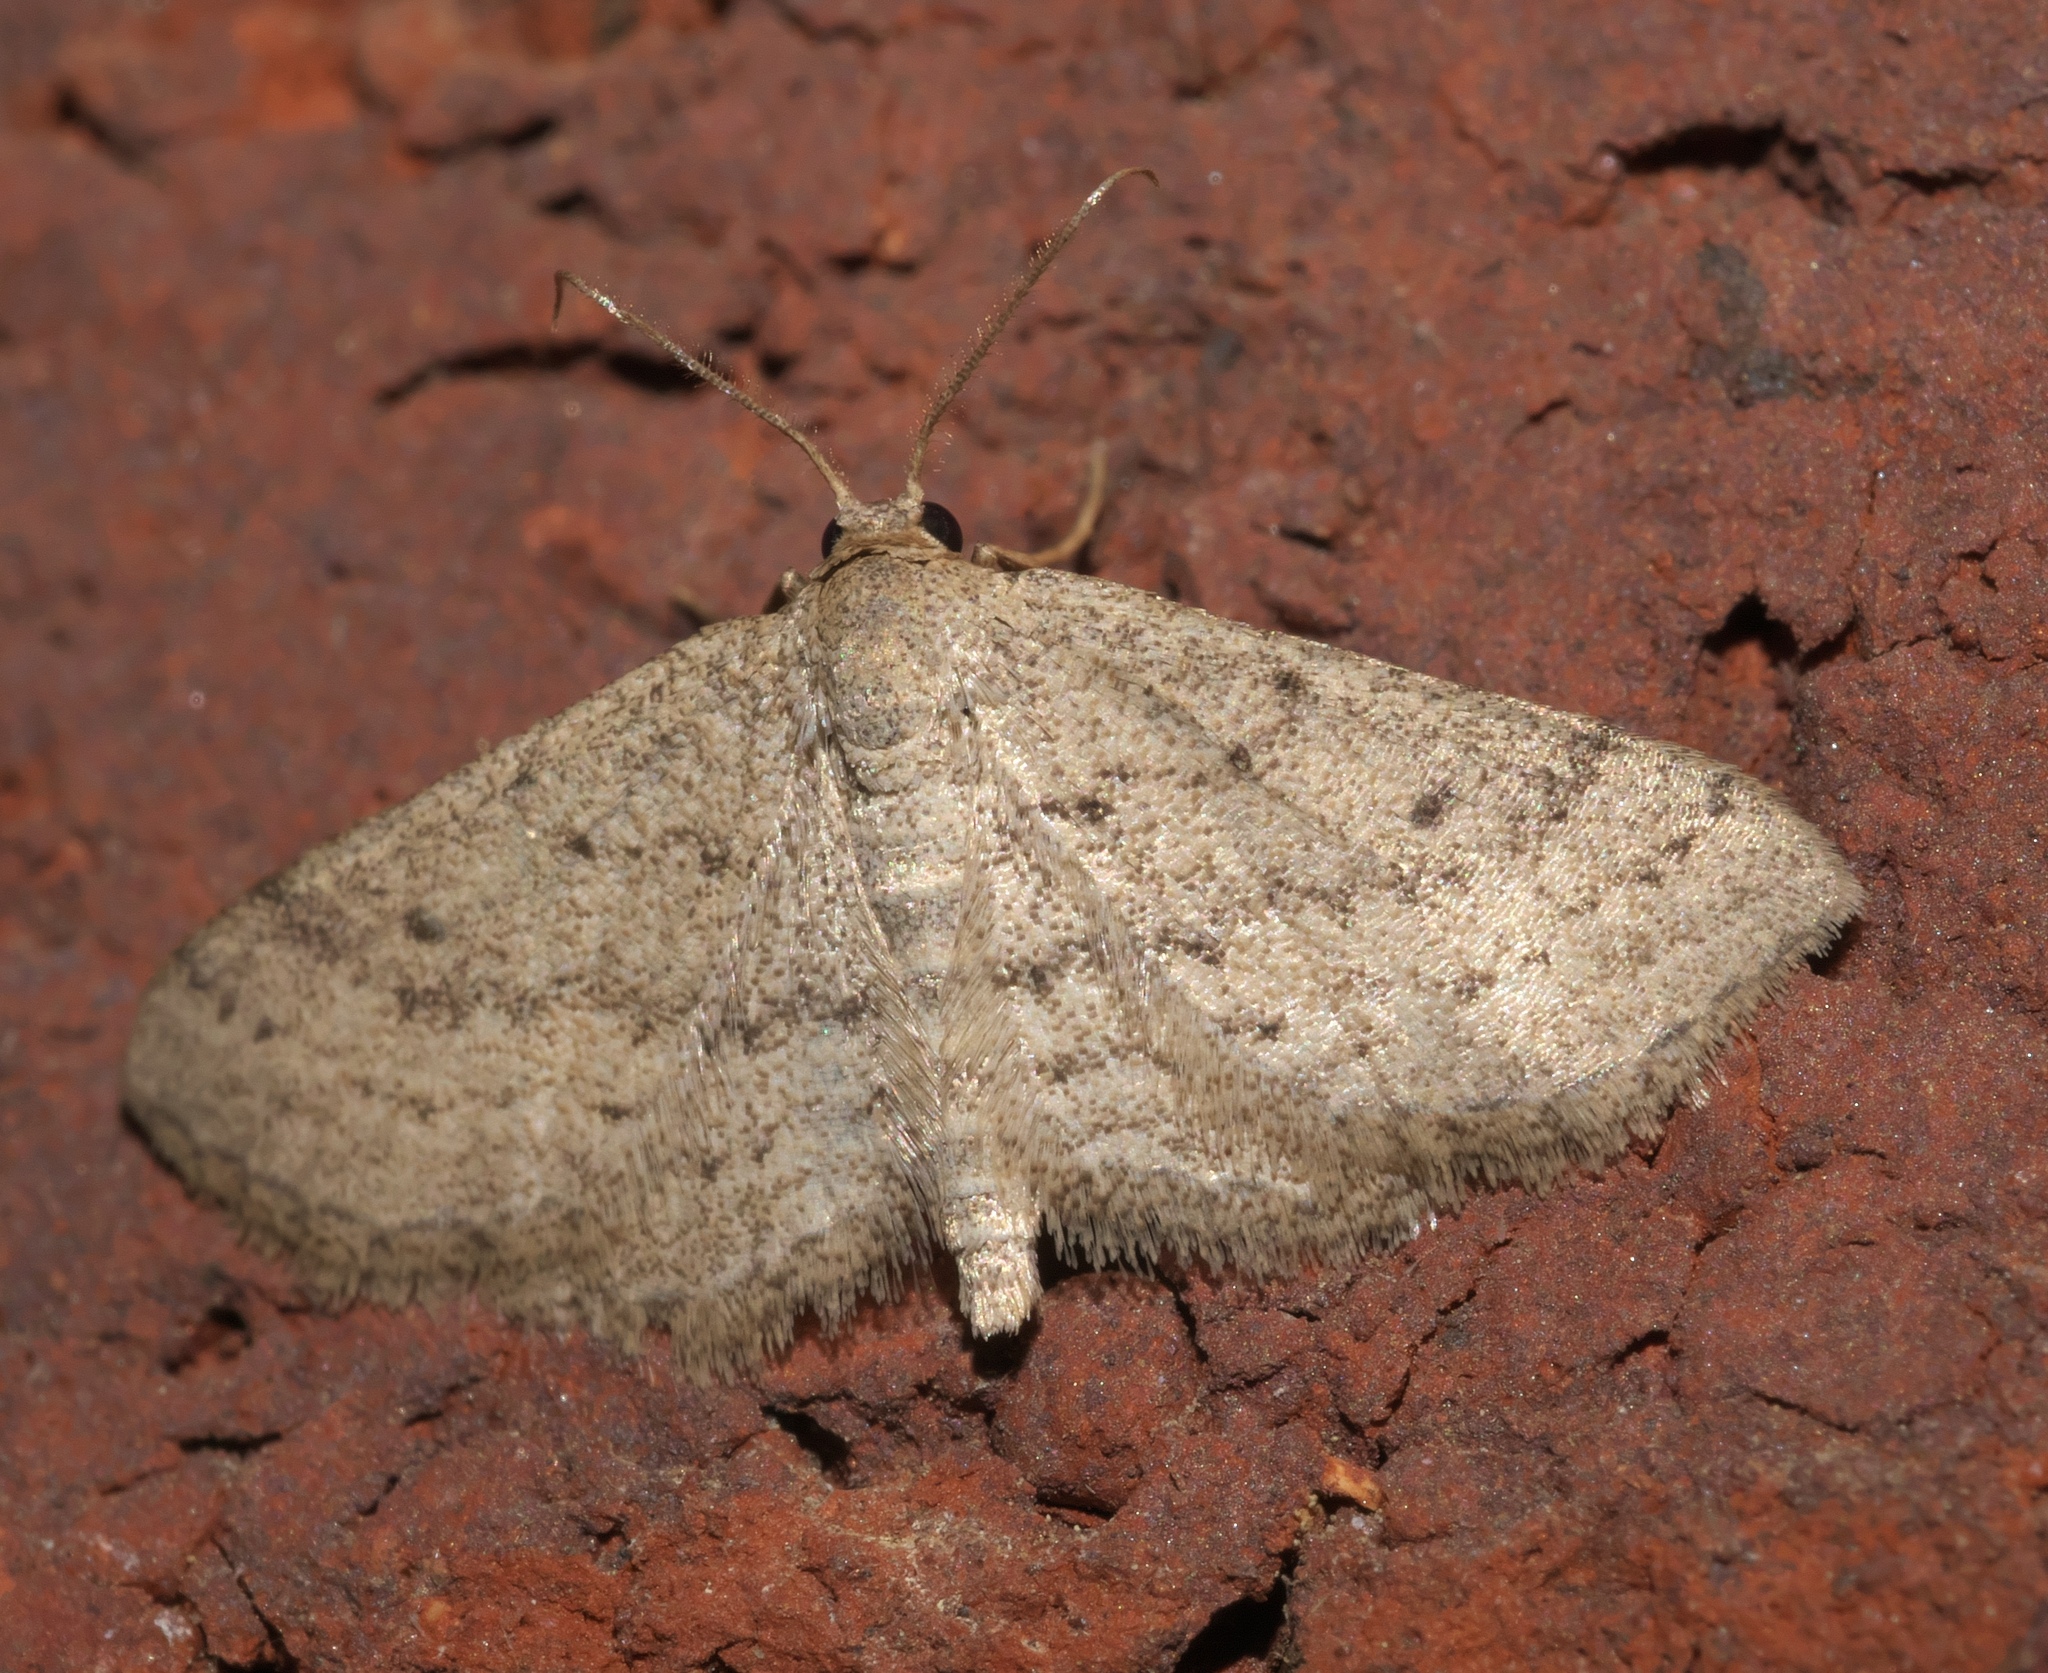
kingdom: Animalia
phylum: Arthropoda
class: Insecta
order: Lepidoptera
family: Geometridae
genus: Lobocleta
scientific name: Lobocleta ossularia
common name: Drab brown wave
